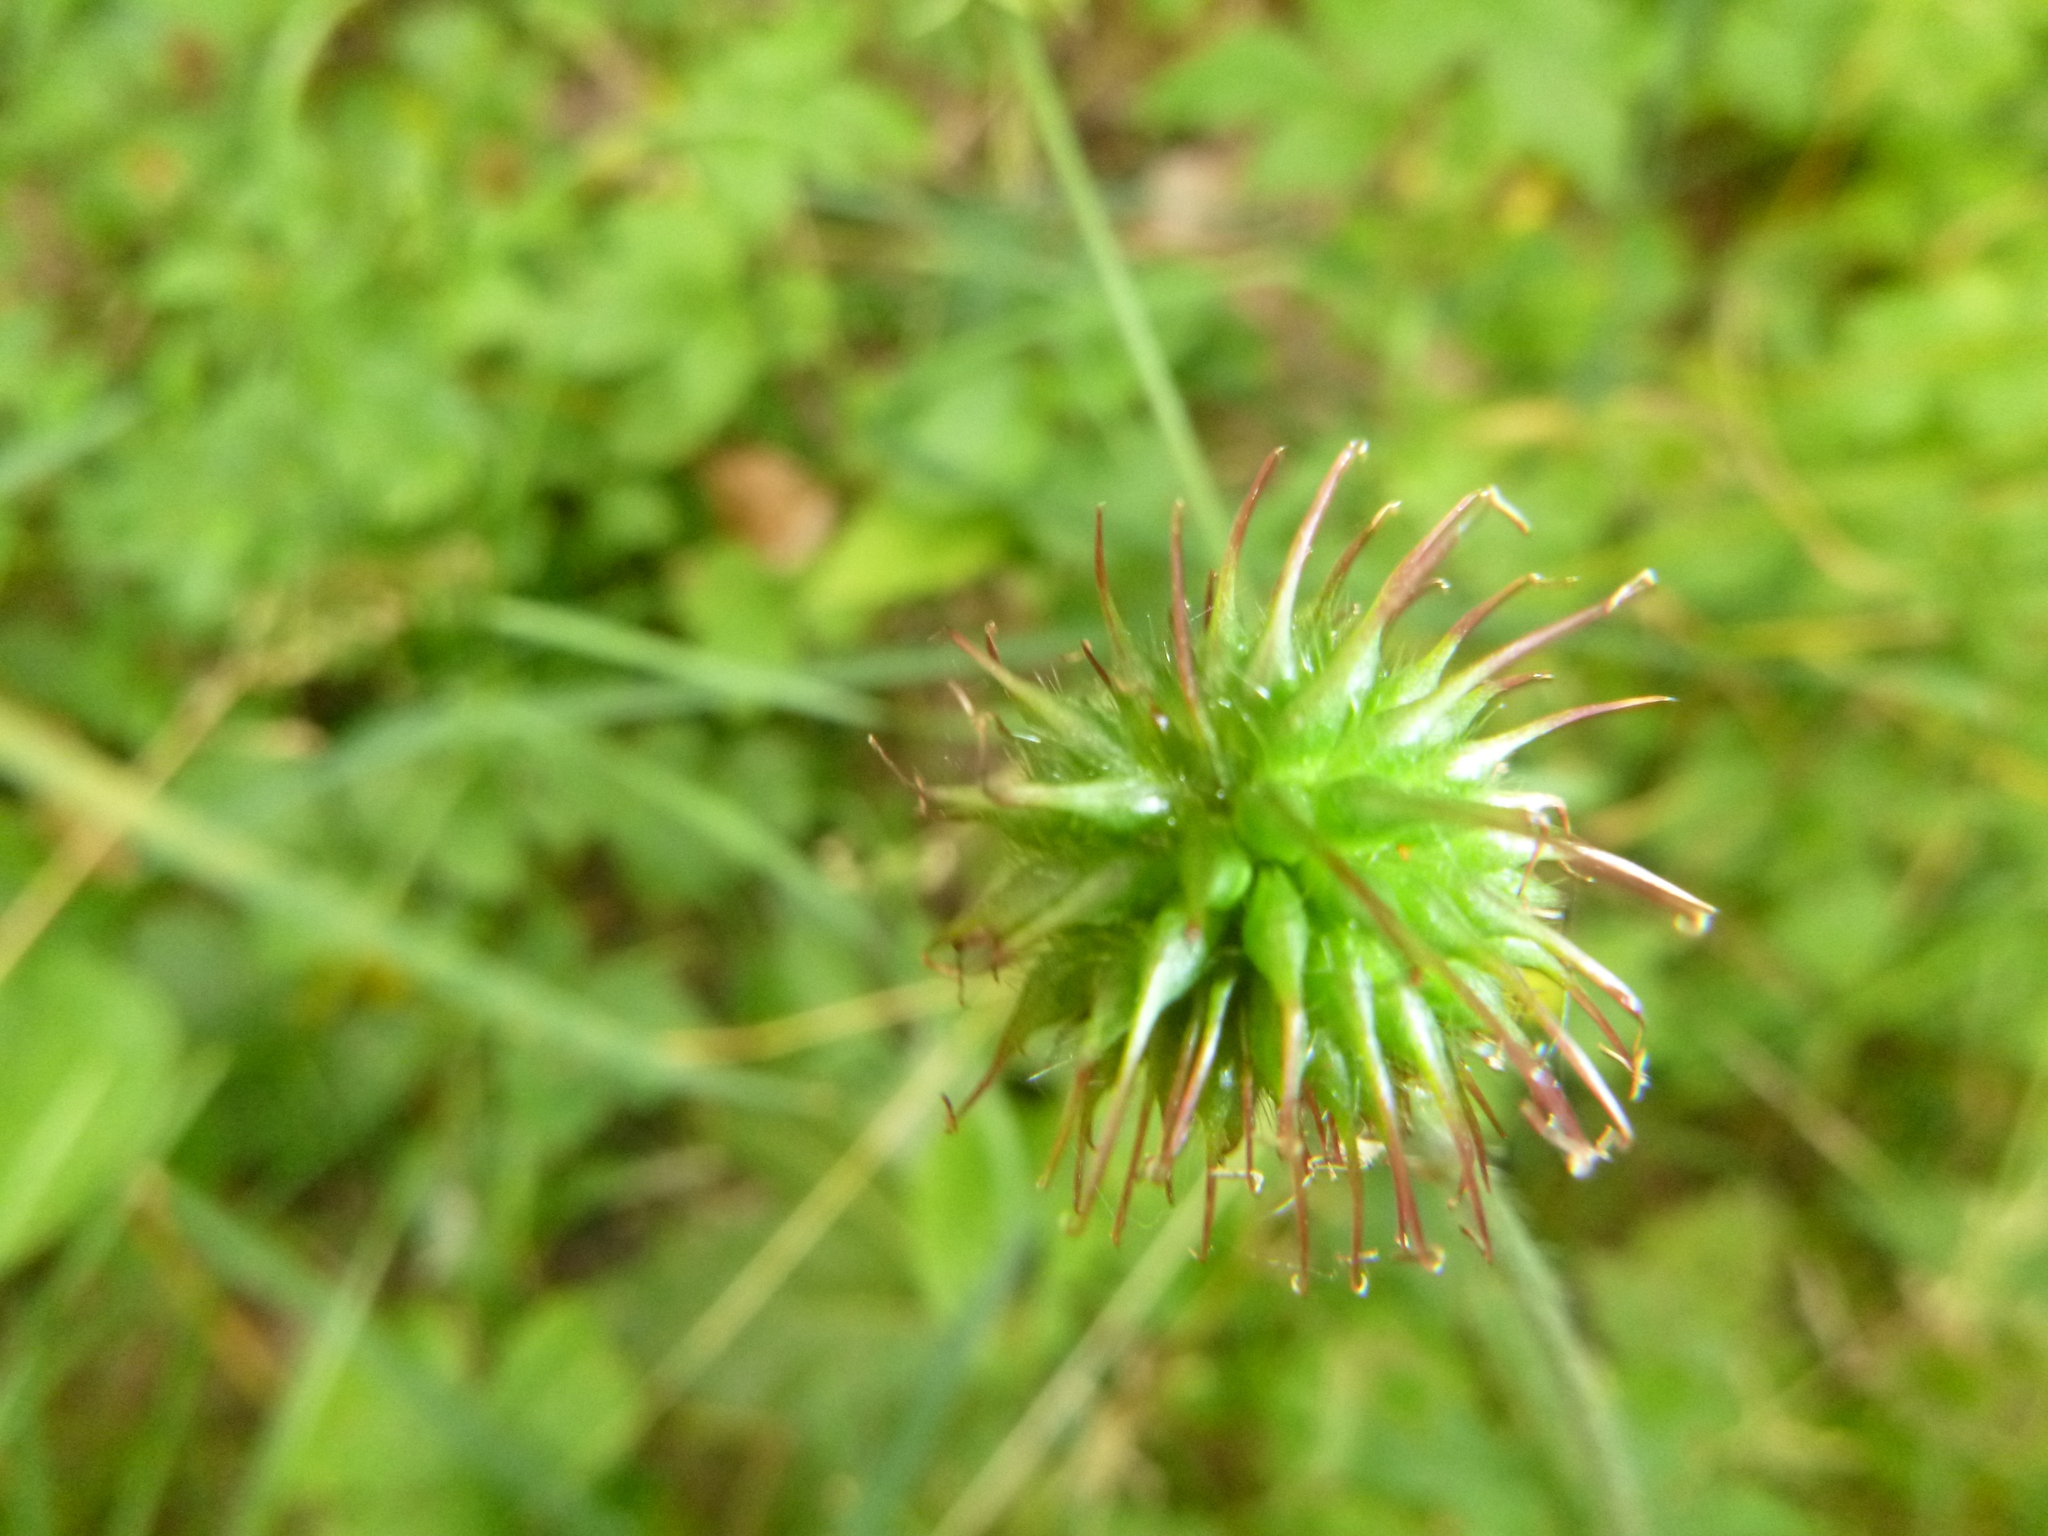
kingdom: Plantae
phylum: Tracheophyta
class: Magnoliopsida
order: Rosales
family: Rosaceae
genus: Geum
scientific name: Geum urbanum
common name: Wood avens
